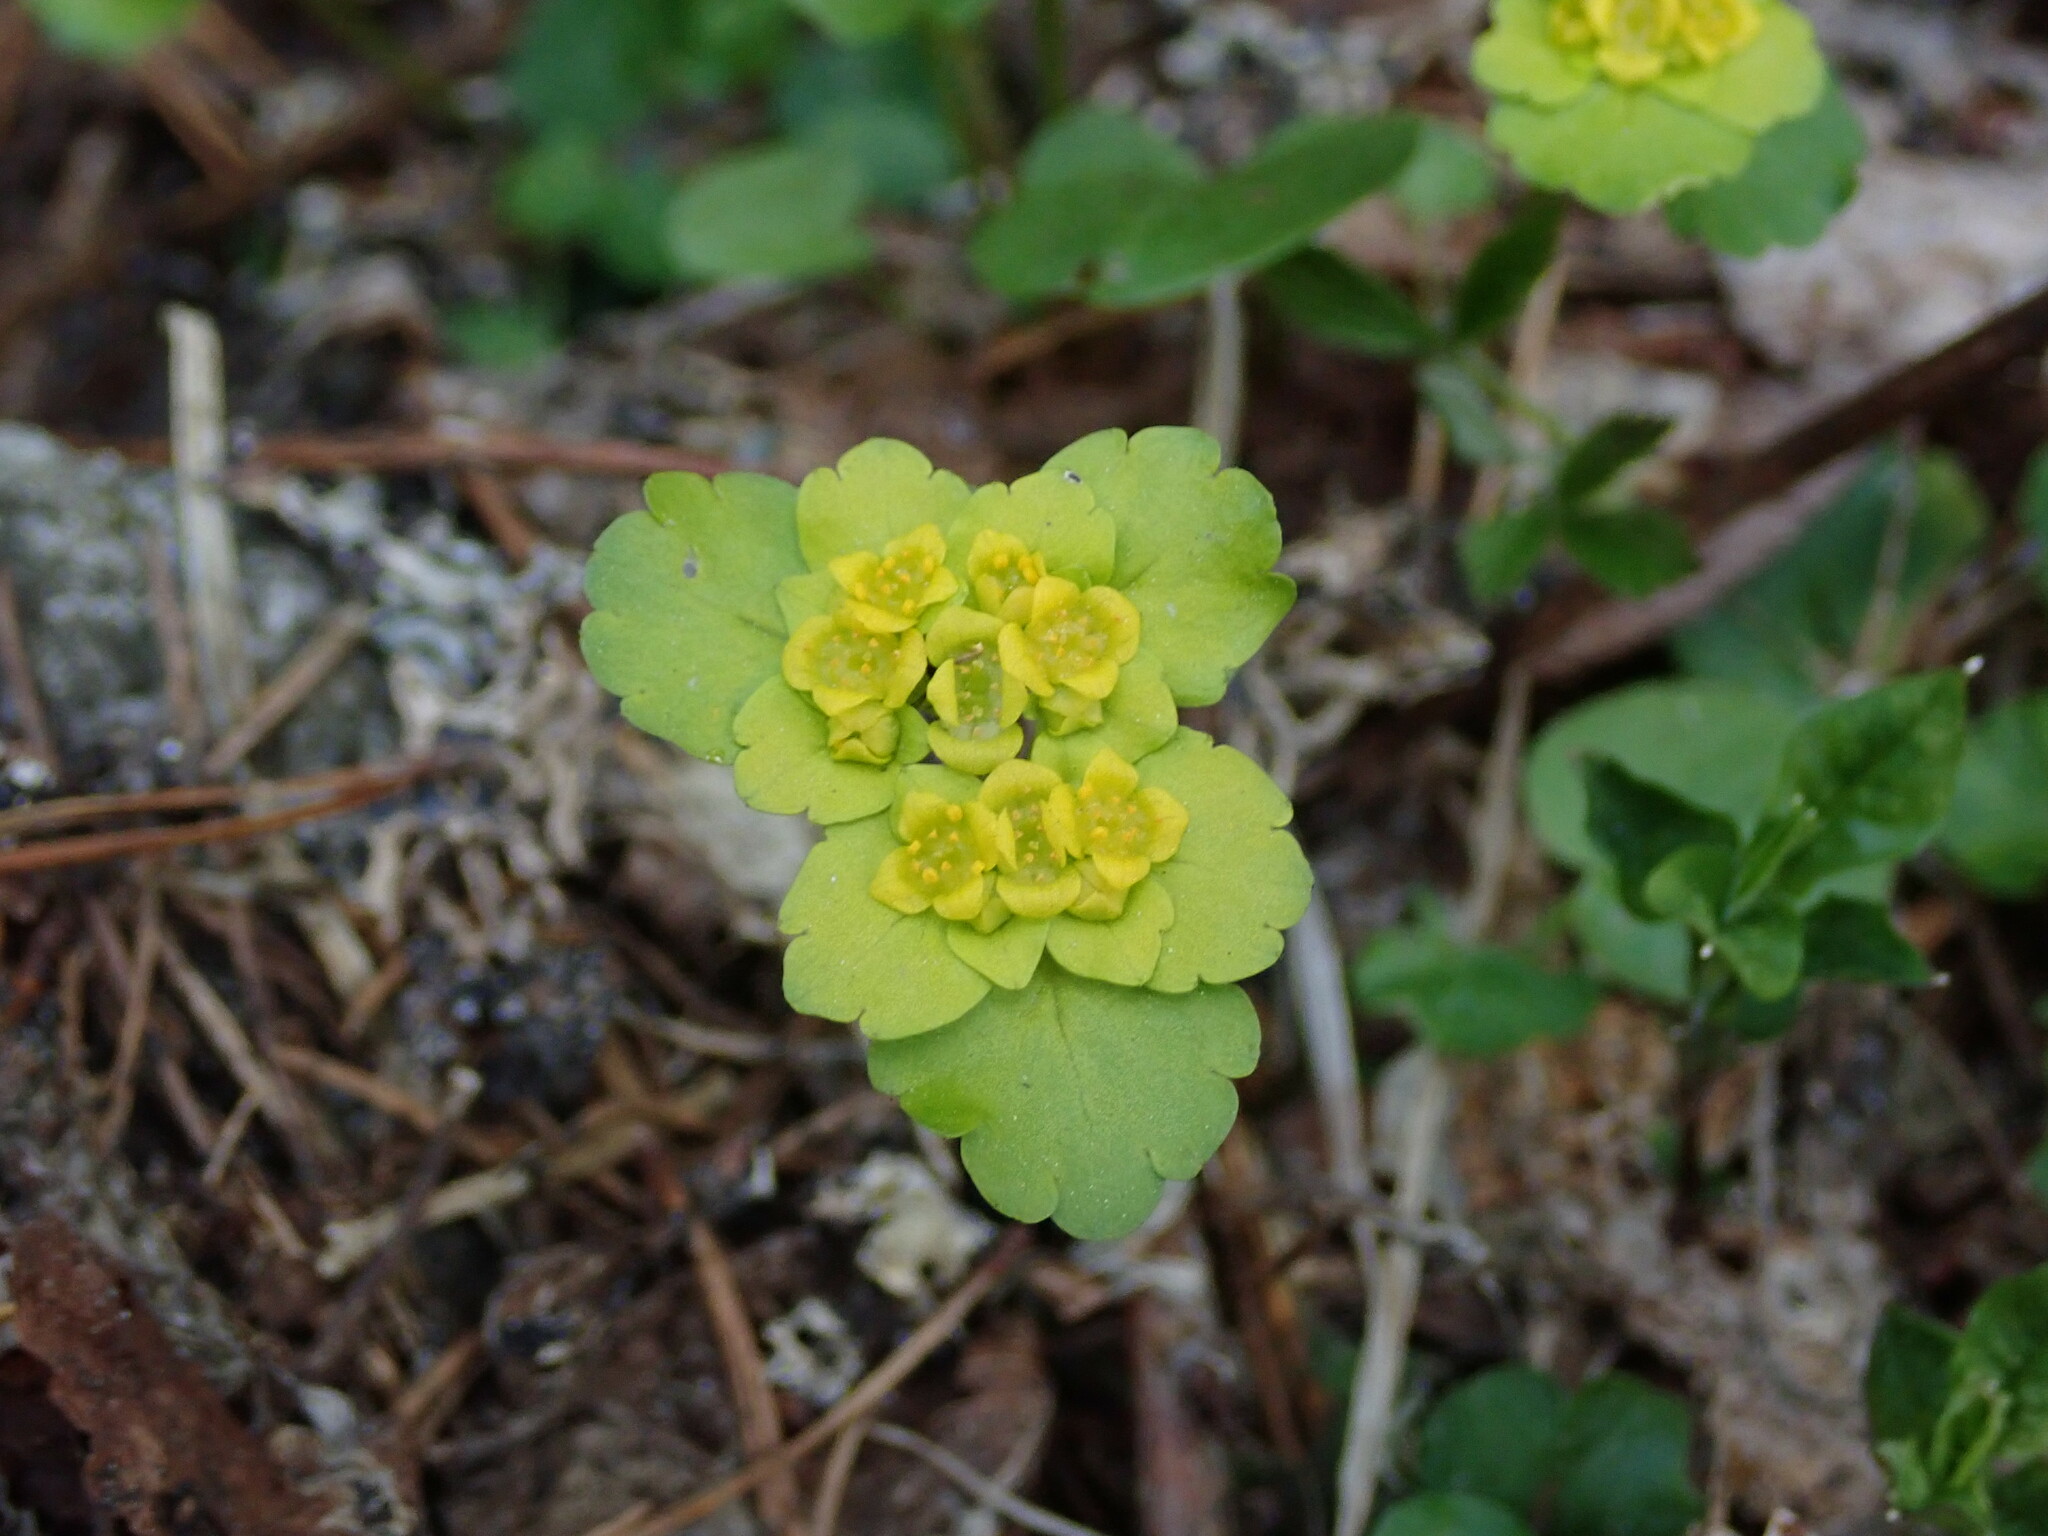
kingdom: Plantae
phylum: Tracheophyta
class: Magnoliopsida
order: Saxifragales
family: Saxifragaceae
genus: Chrysosplenium
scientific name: Chrysosplenium alternifolium
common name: Alternate-leaved golden-saxifrage
